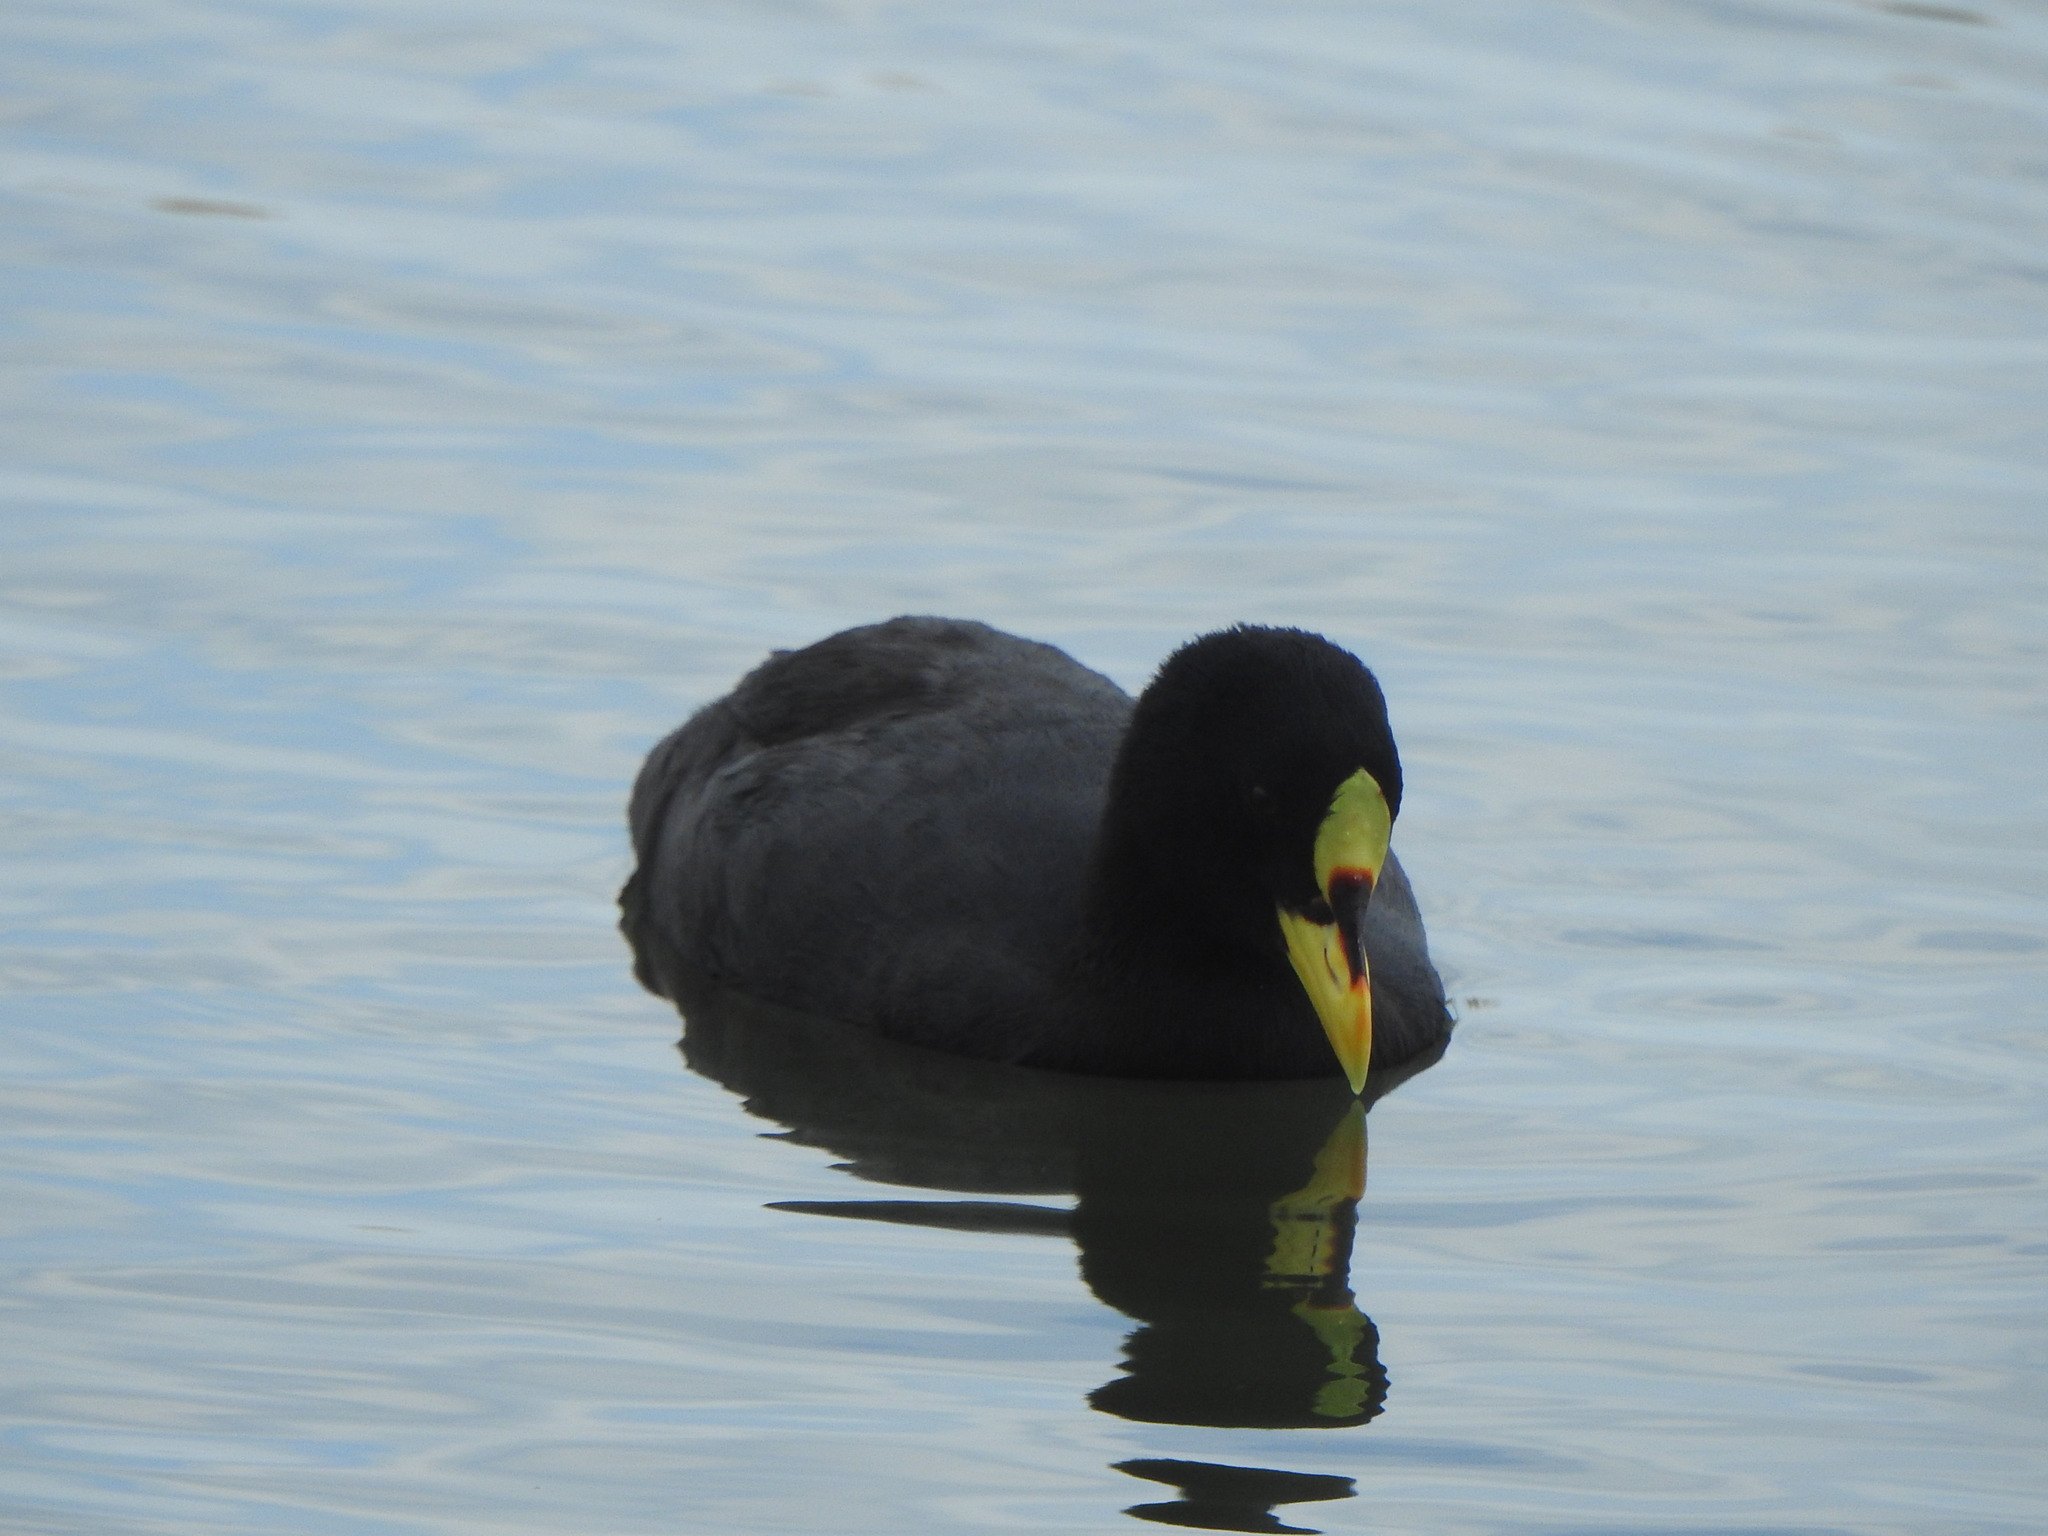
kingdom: Animalia
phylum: Chordata
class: Aves
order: Gruiformes
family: Rallidae
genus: Fulica
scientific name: Fulica armillata
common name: Red-gartered coot
